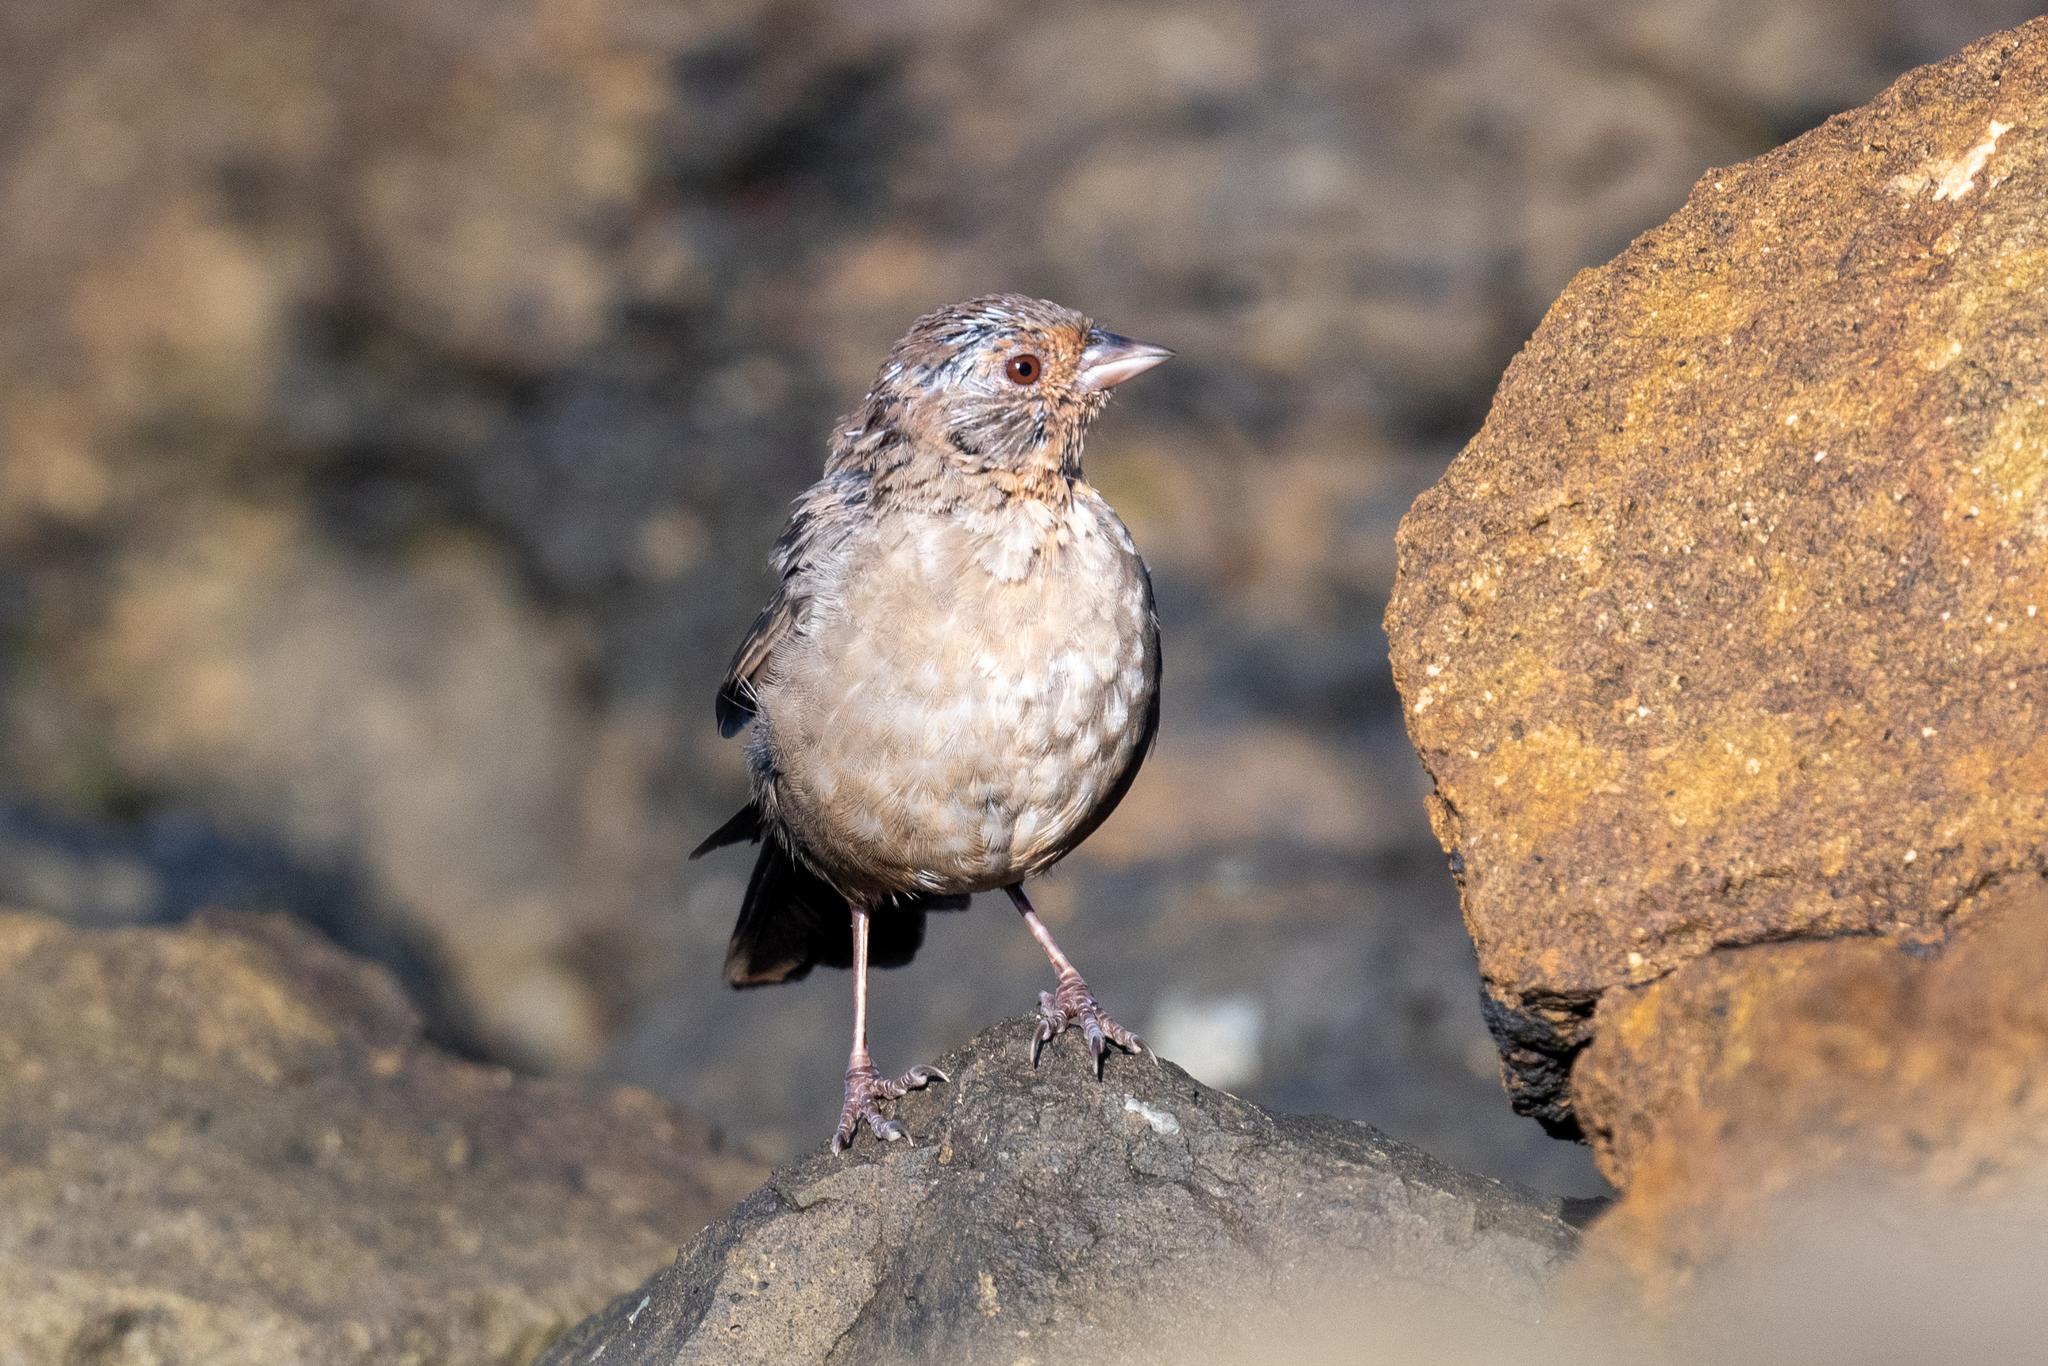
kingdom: Animalia
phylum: Chordata
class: Aves
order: Passeriformes
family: Passerellidae
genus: Melozone
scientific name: Melozone crissalis
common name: California towhee
